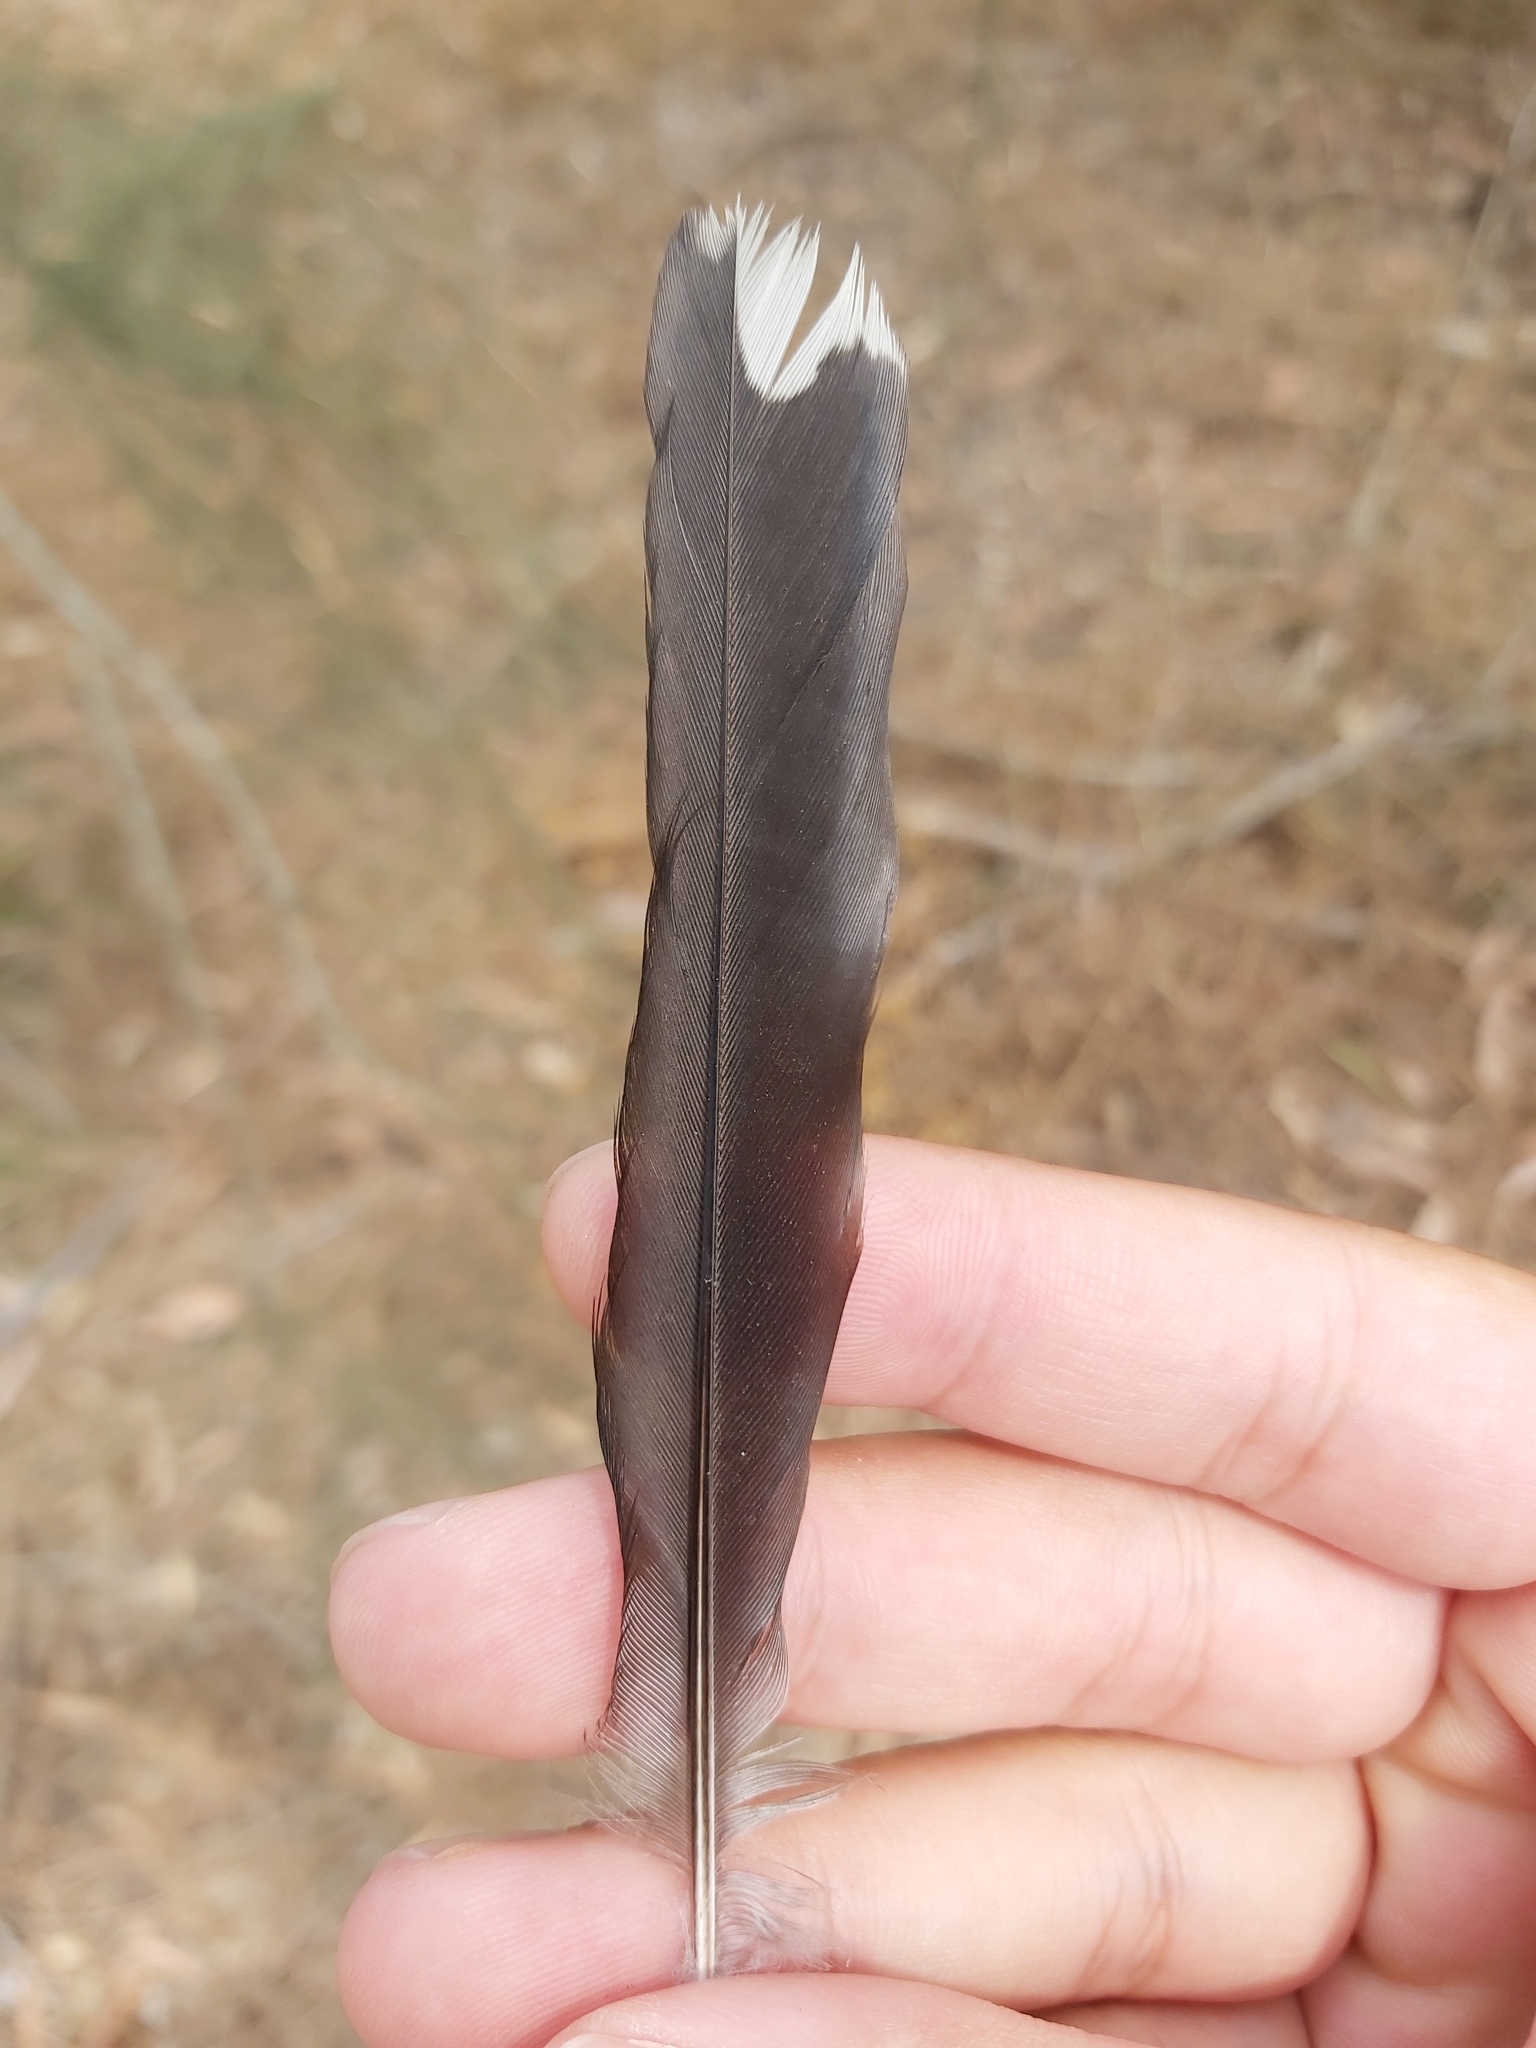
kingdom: Animalia
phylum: Chordata
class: Aves
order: Passeriformes
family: Cracticidae
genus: Cracticus
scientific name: Cracticus torquatus
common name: Grey butcherbird
